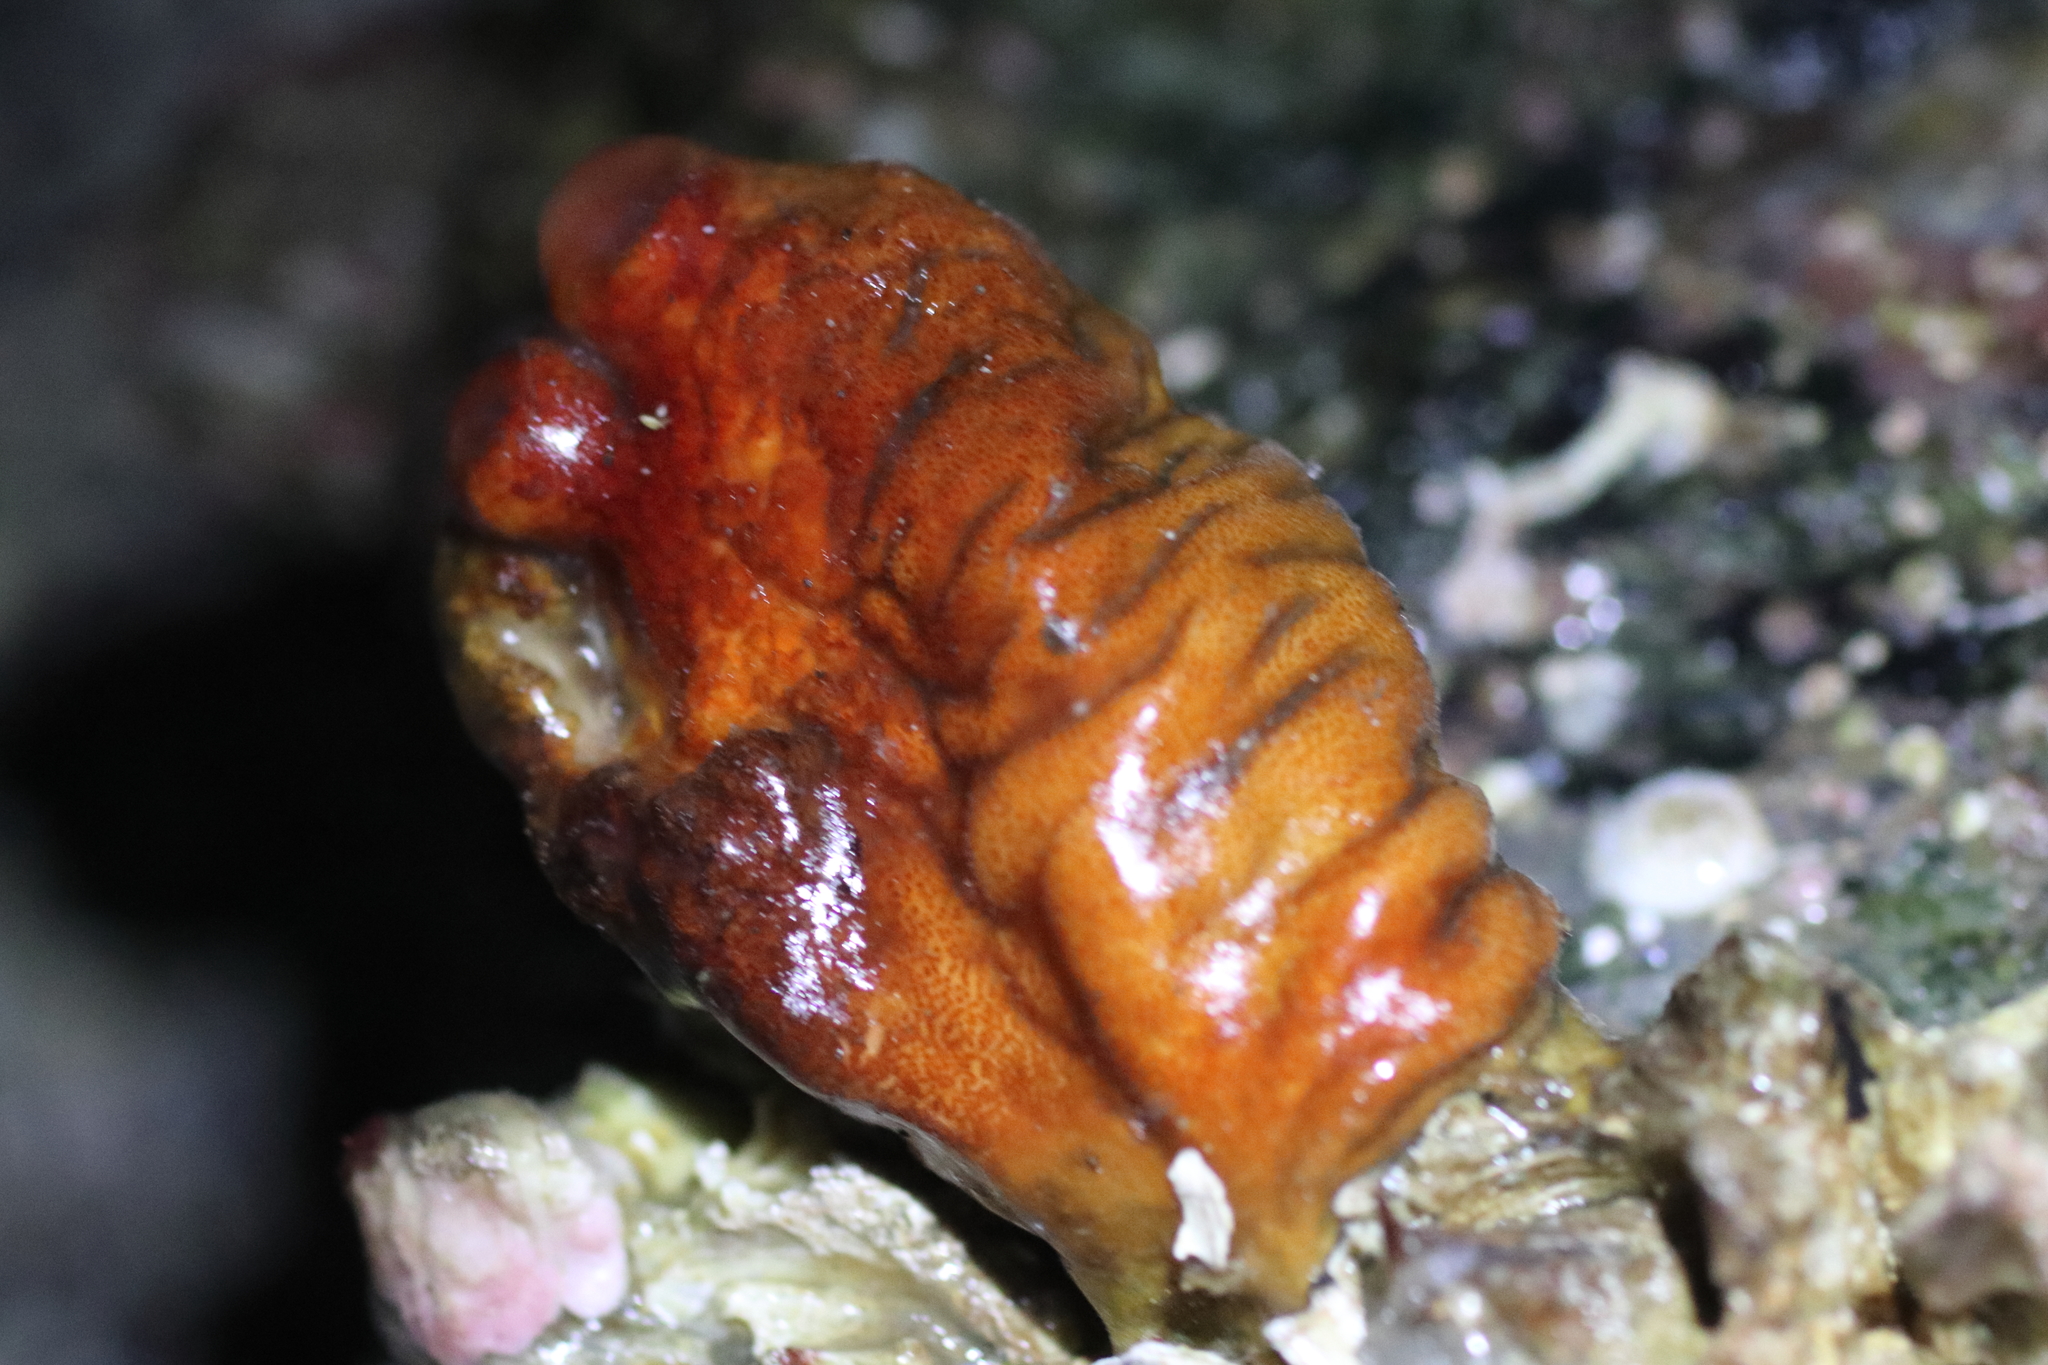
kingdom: Animalia
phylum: Chordata
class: Ascidiacea
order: Stolidobranchia
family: Pyuridae
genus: Halocynthia
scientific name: Halocynthia aurantium
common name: Sea peach
